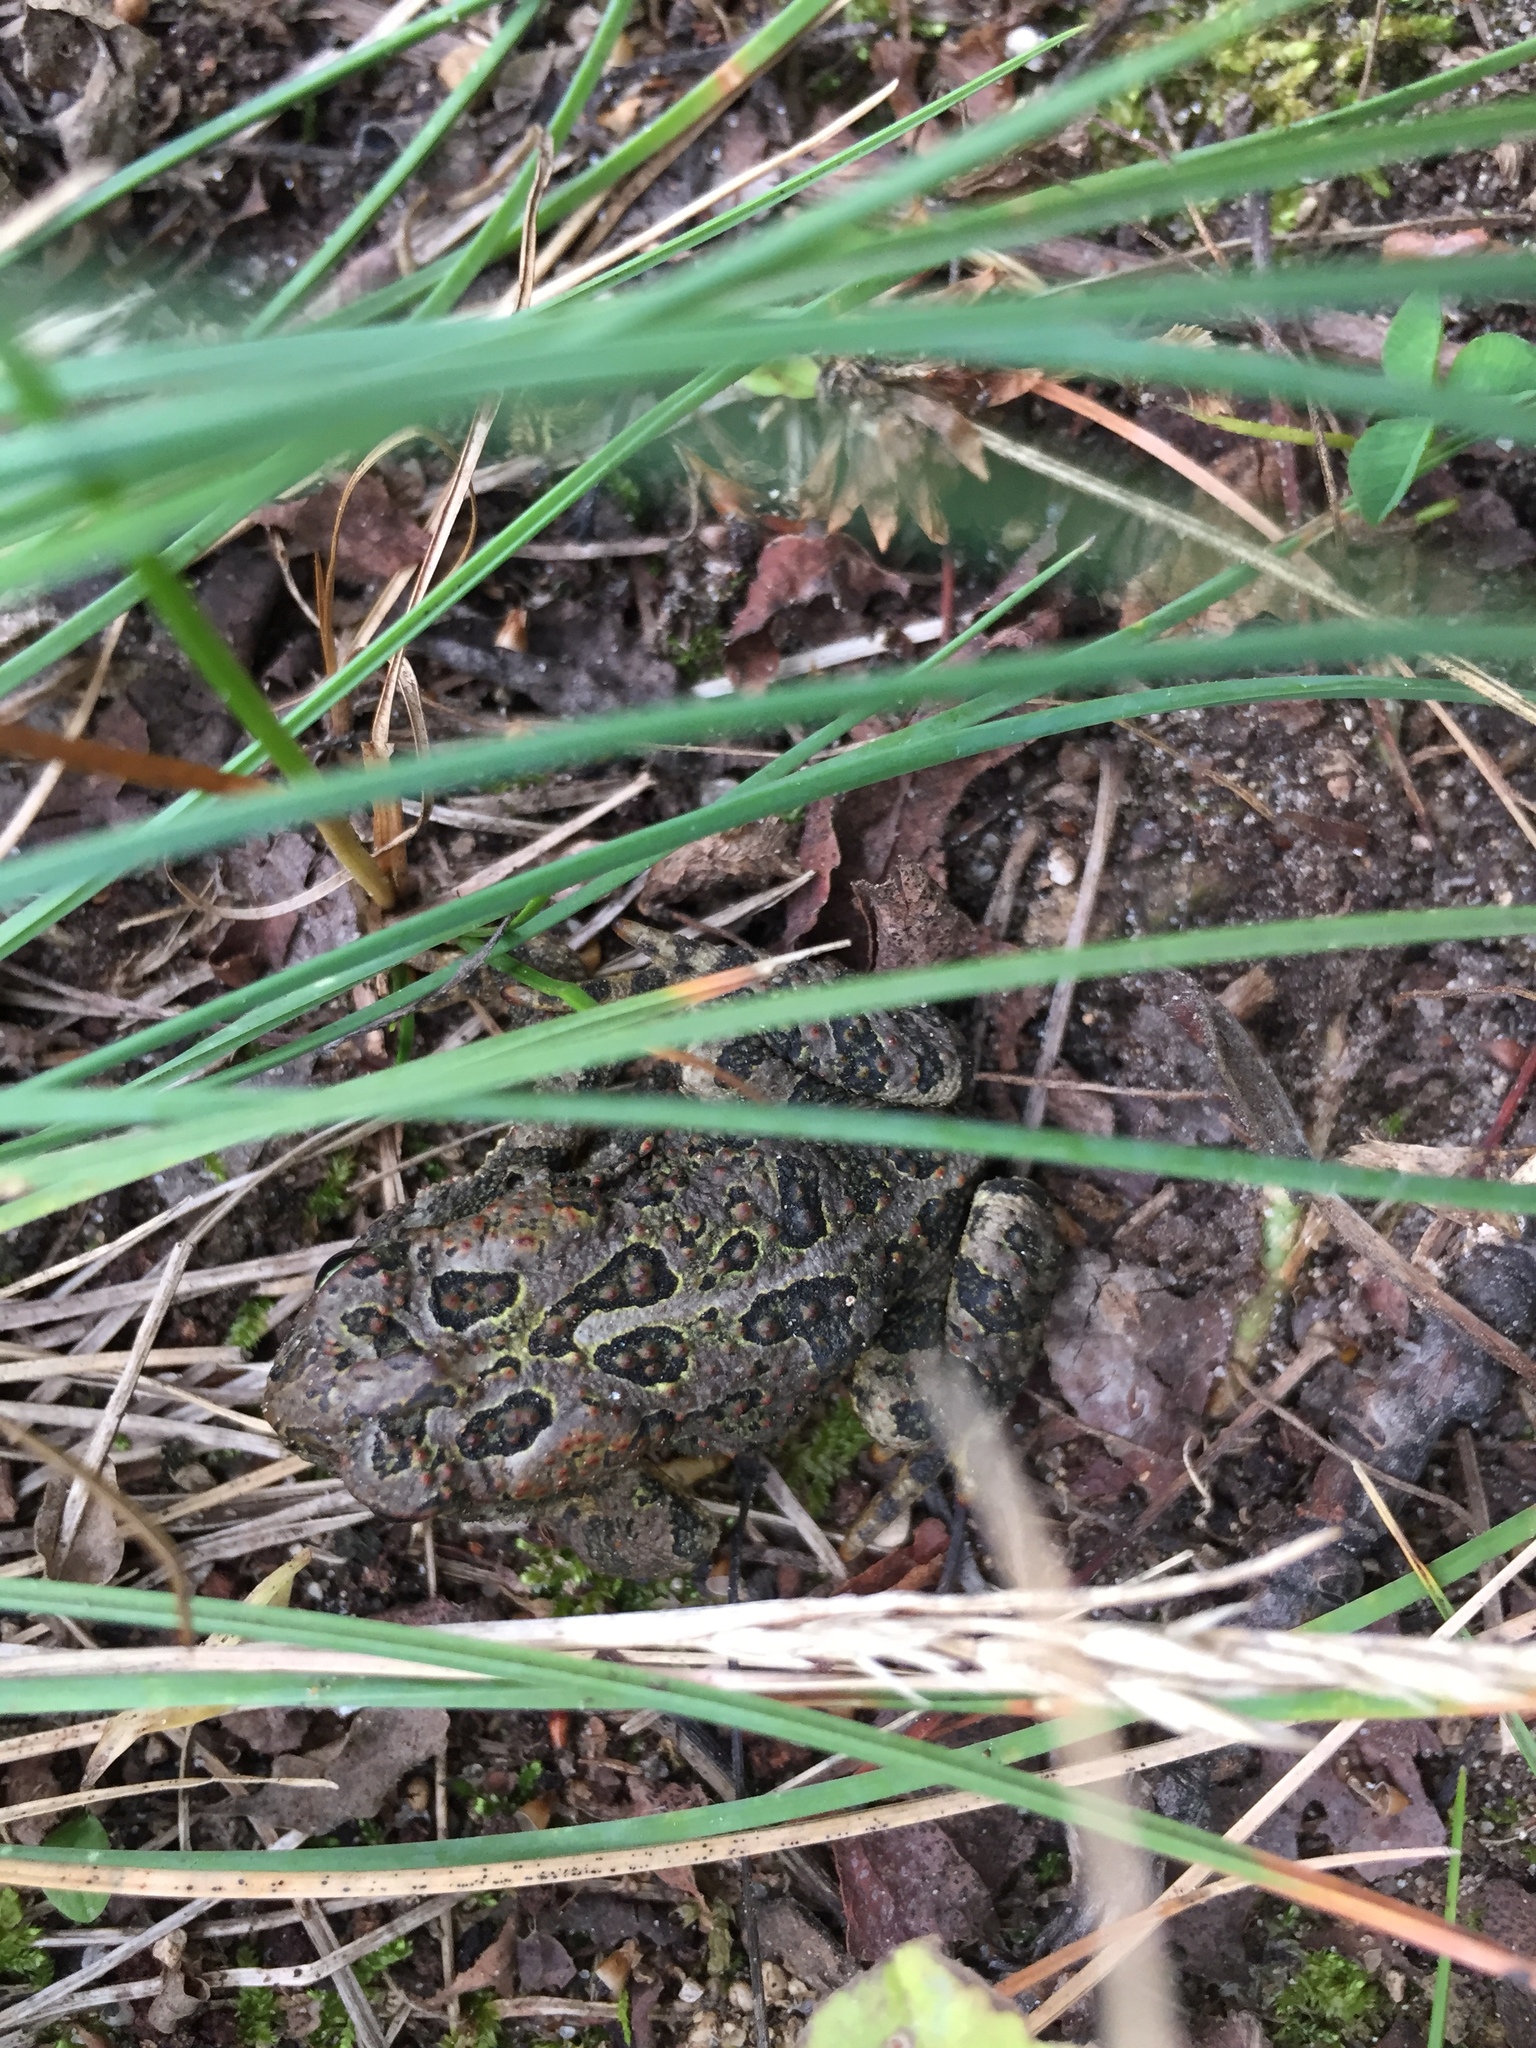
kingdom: Animalia
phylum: Chordata
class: Amphibia
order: Anura
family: Bufonidae
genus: Anaxyrus
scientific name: Anaxyrus hemiophrys
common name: Canadian toad
